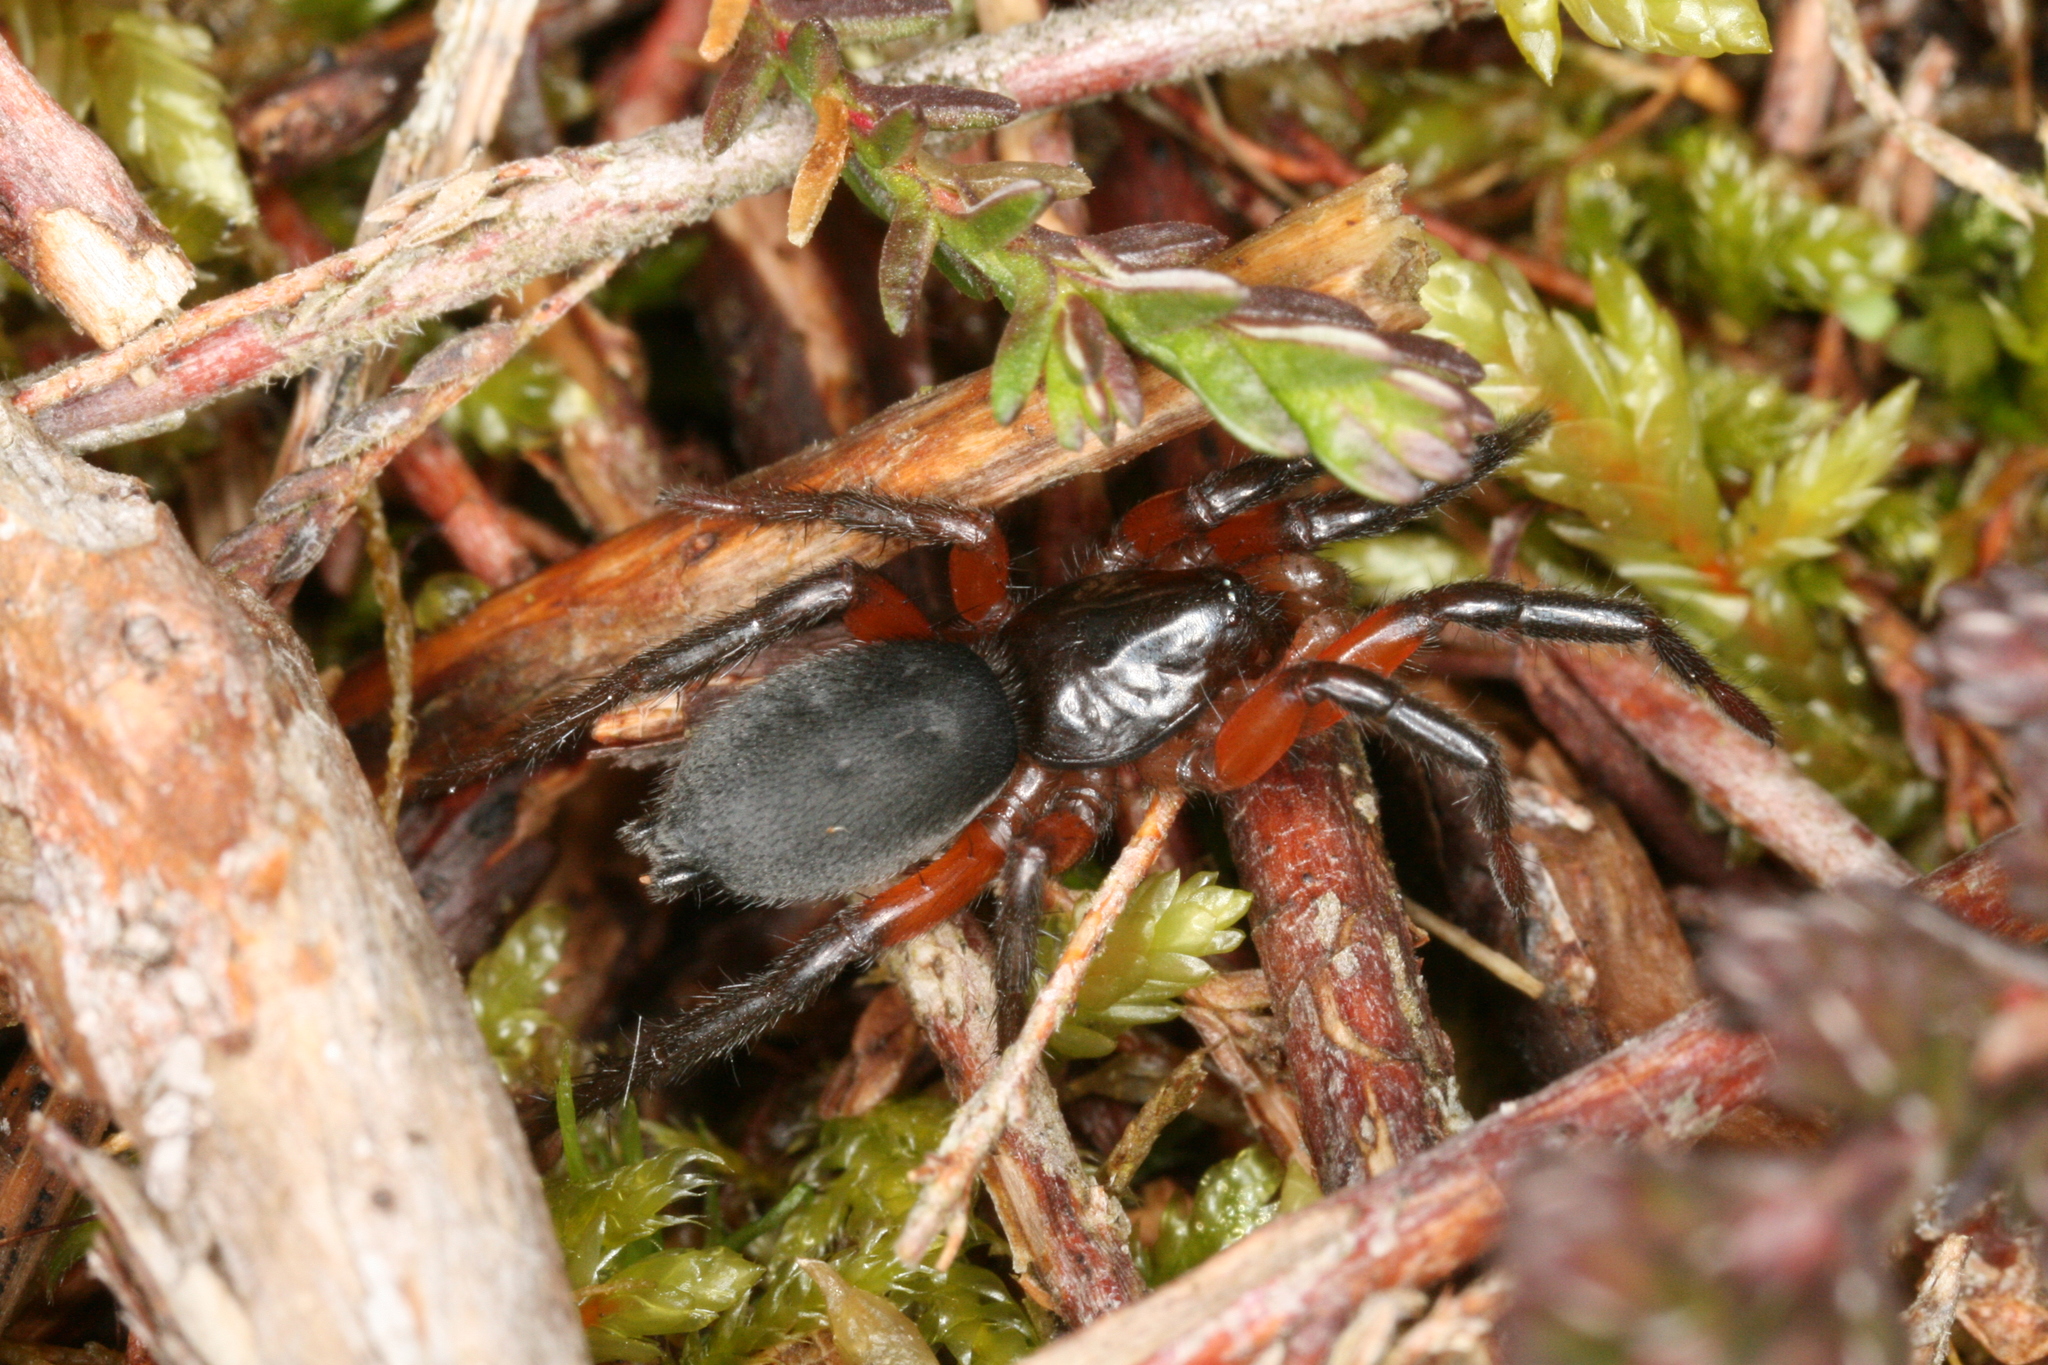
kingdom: Animalia
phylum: Arthropoda
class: Arachnida
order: Araneae
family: Gnaphosidae
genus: Gnaphosa
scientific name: Gnaphosa bicolor
